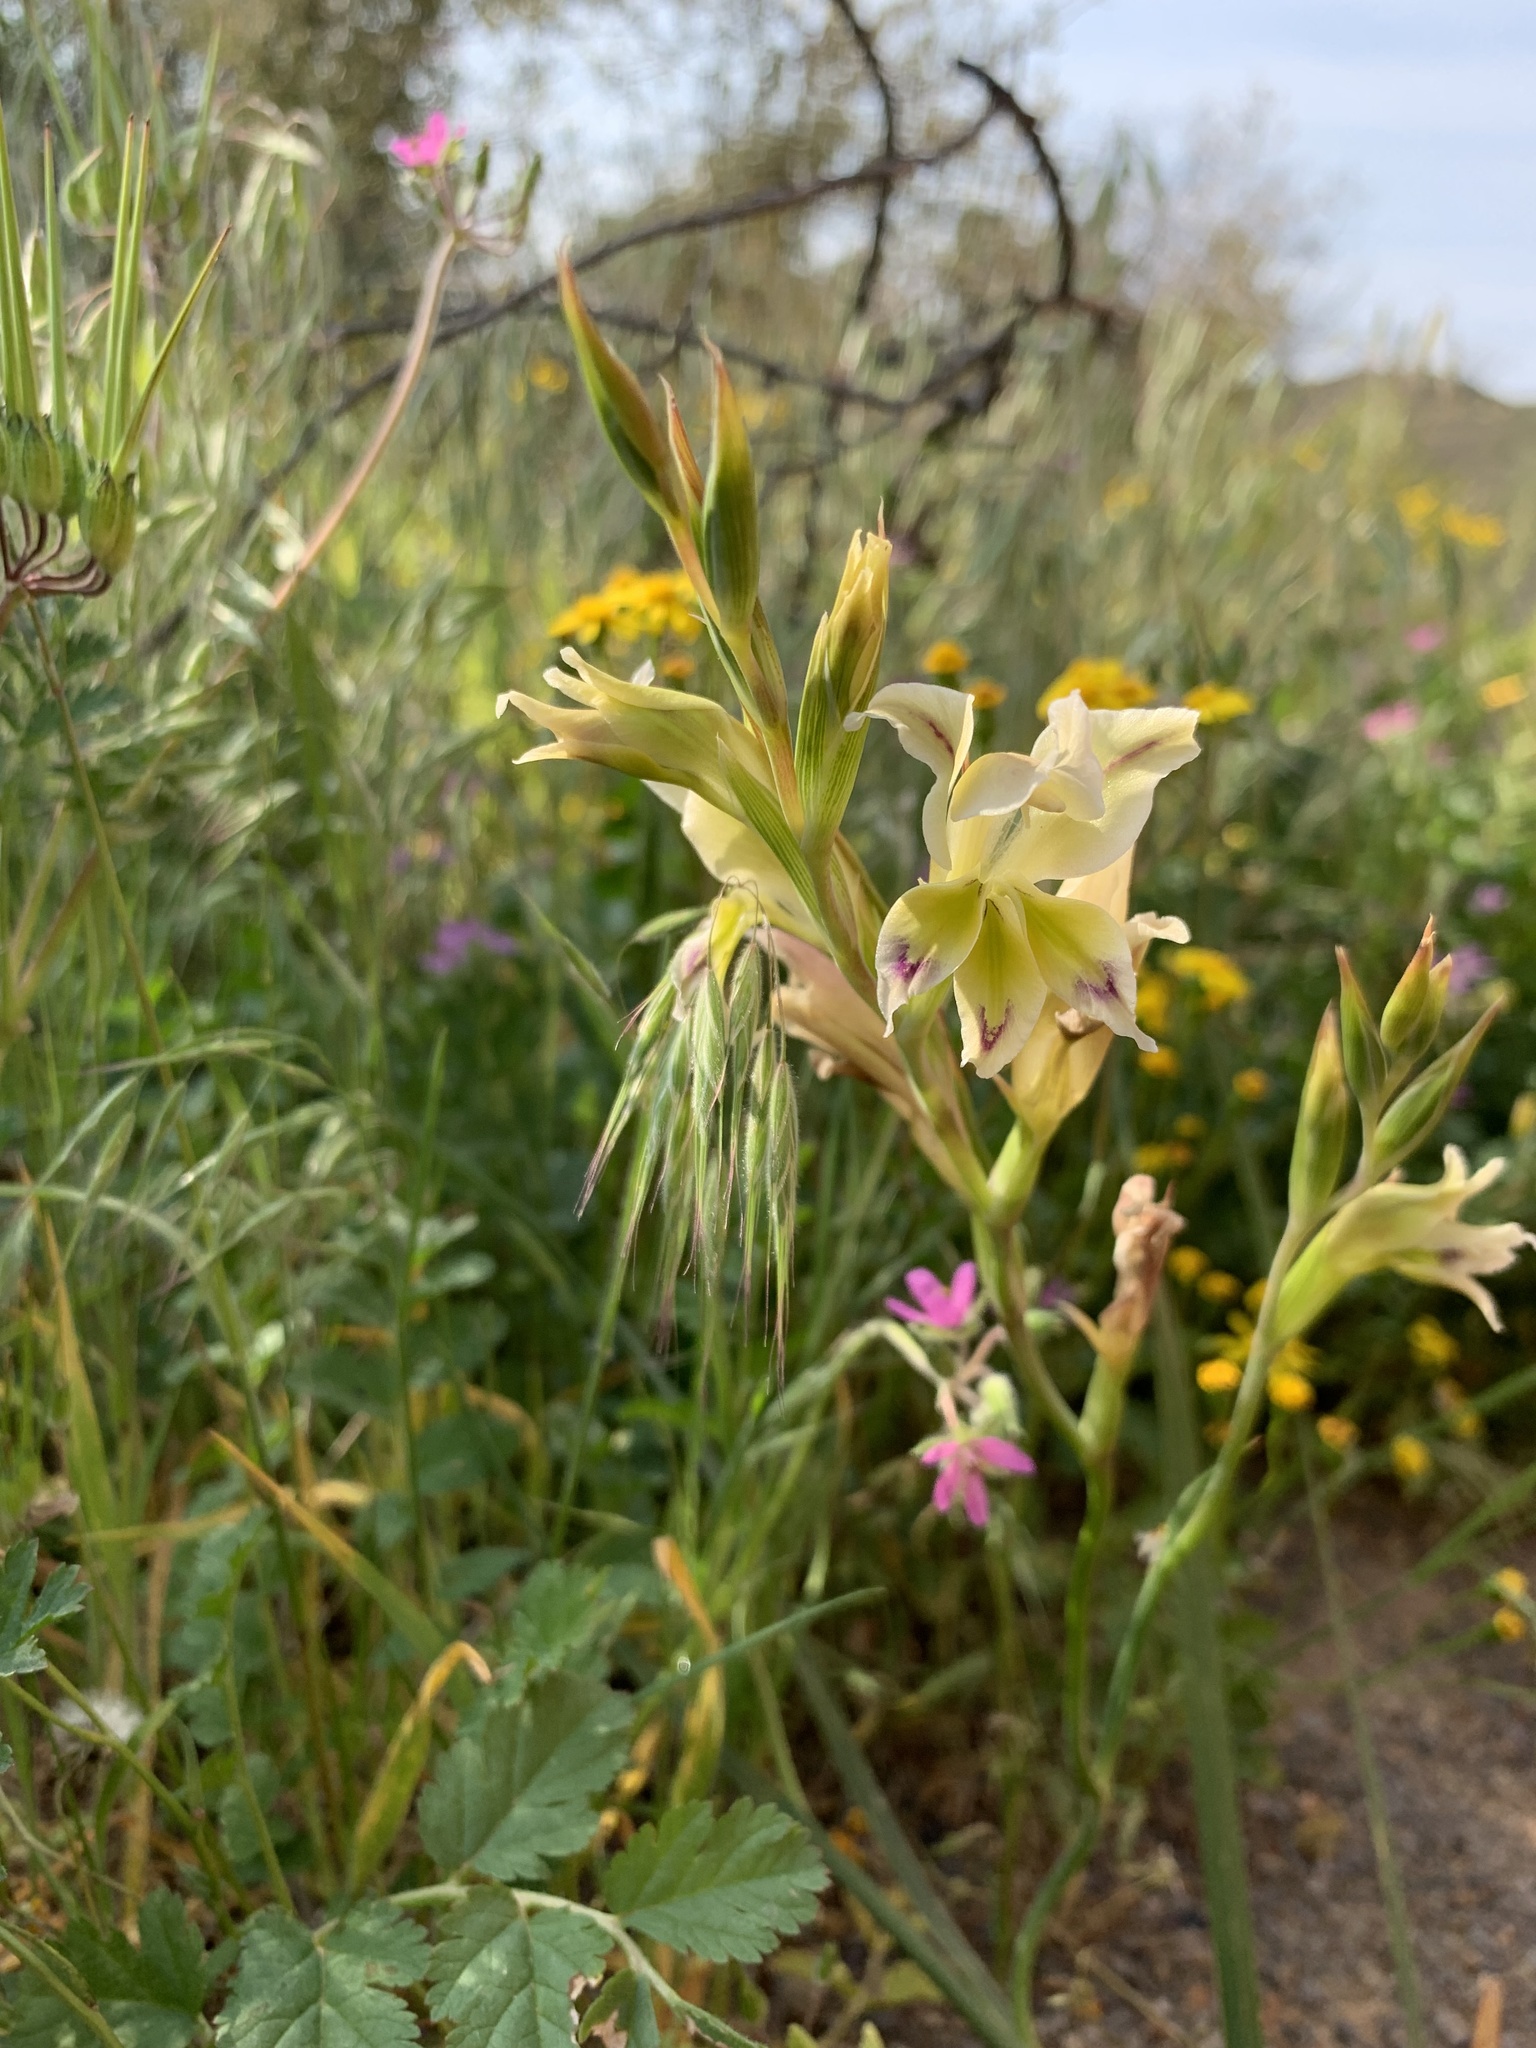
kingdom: Plantae
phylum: Tracheophyta
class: Liliopsida
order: Asparagales
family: Iridaceae
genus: Gladiolus
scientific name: Gladiolus venustus
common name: Purple kalkoentjie
